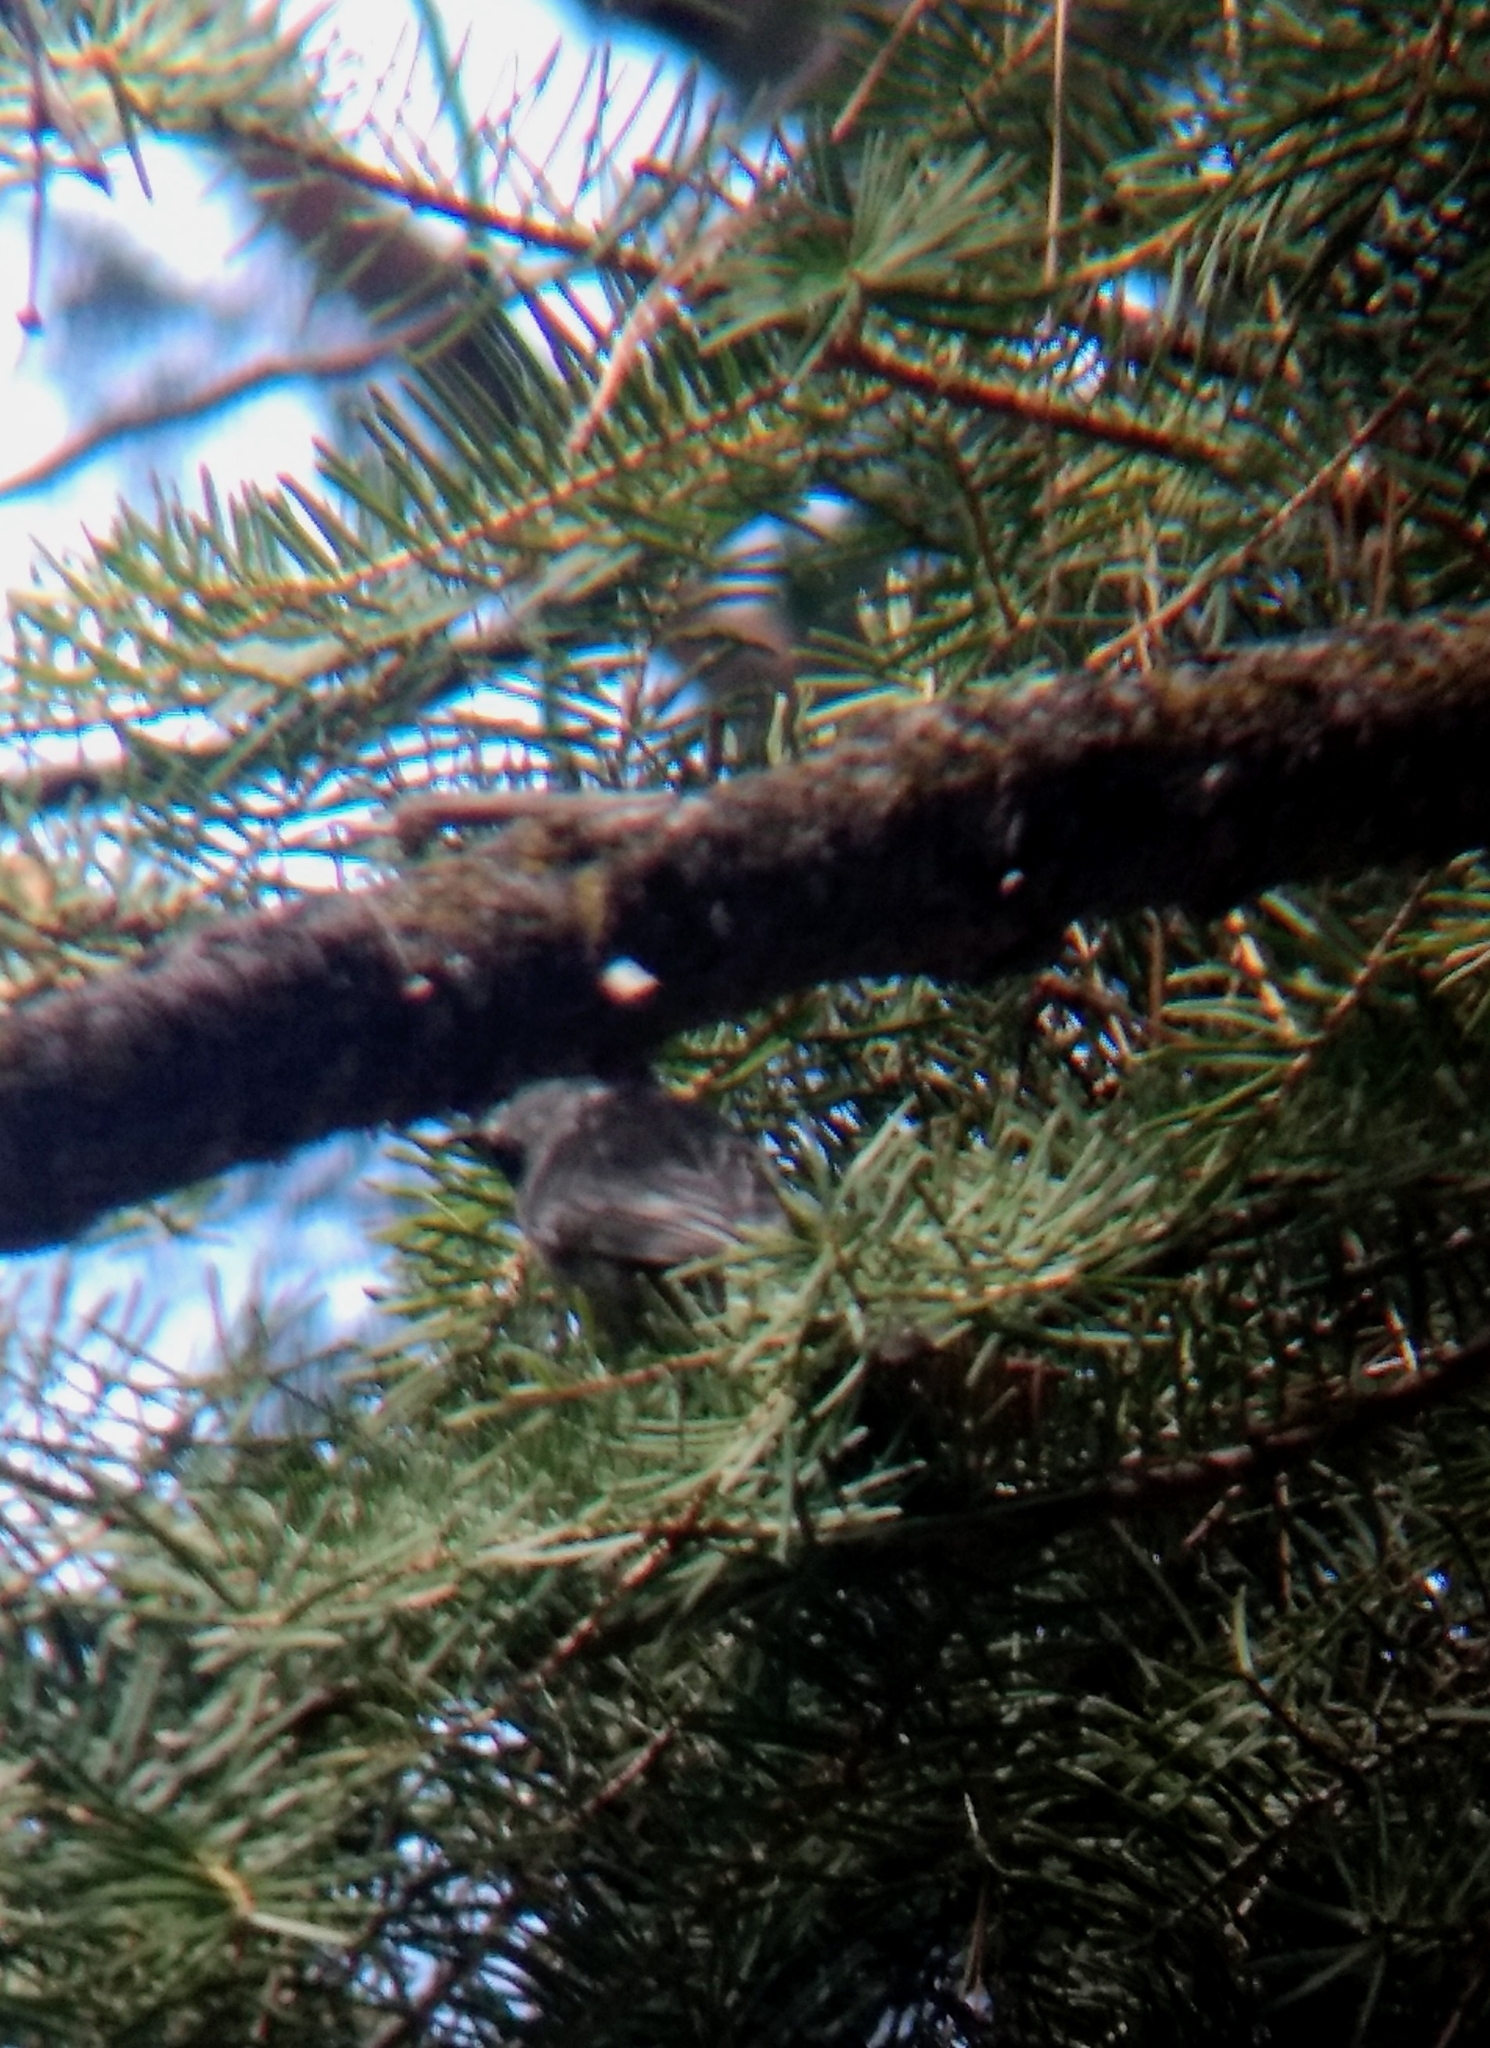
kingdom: Animalia
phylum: Chordata
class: Aves
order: Passeriformes
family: Paridae
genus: Poecile
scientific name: Poecile gambeli
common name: Mountain chickadee
